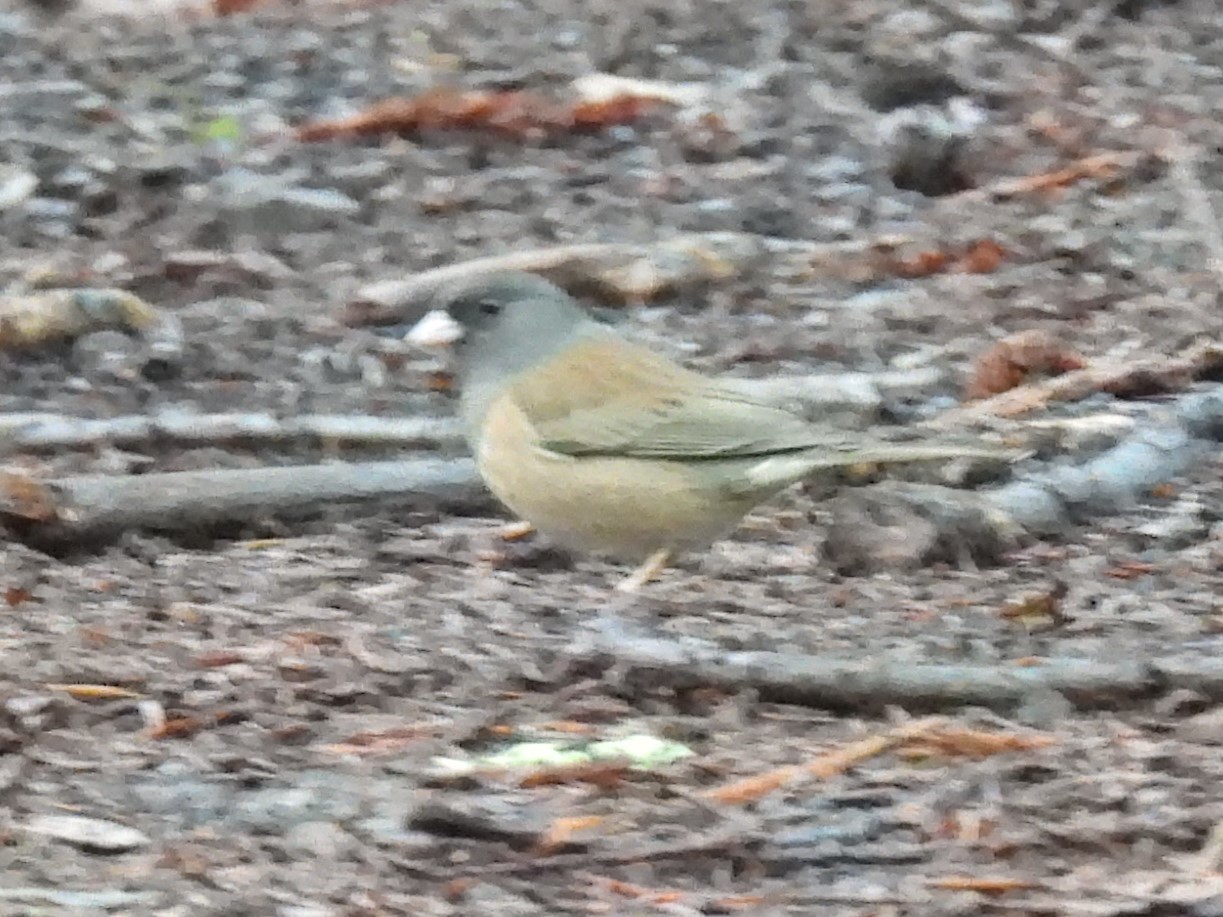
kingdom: Animalia
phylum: Chordata
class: Aves
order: Passeriformes
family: Passerellidae
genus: Junco
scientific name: Junco hyemalis
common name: Dark-eyed junco
